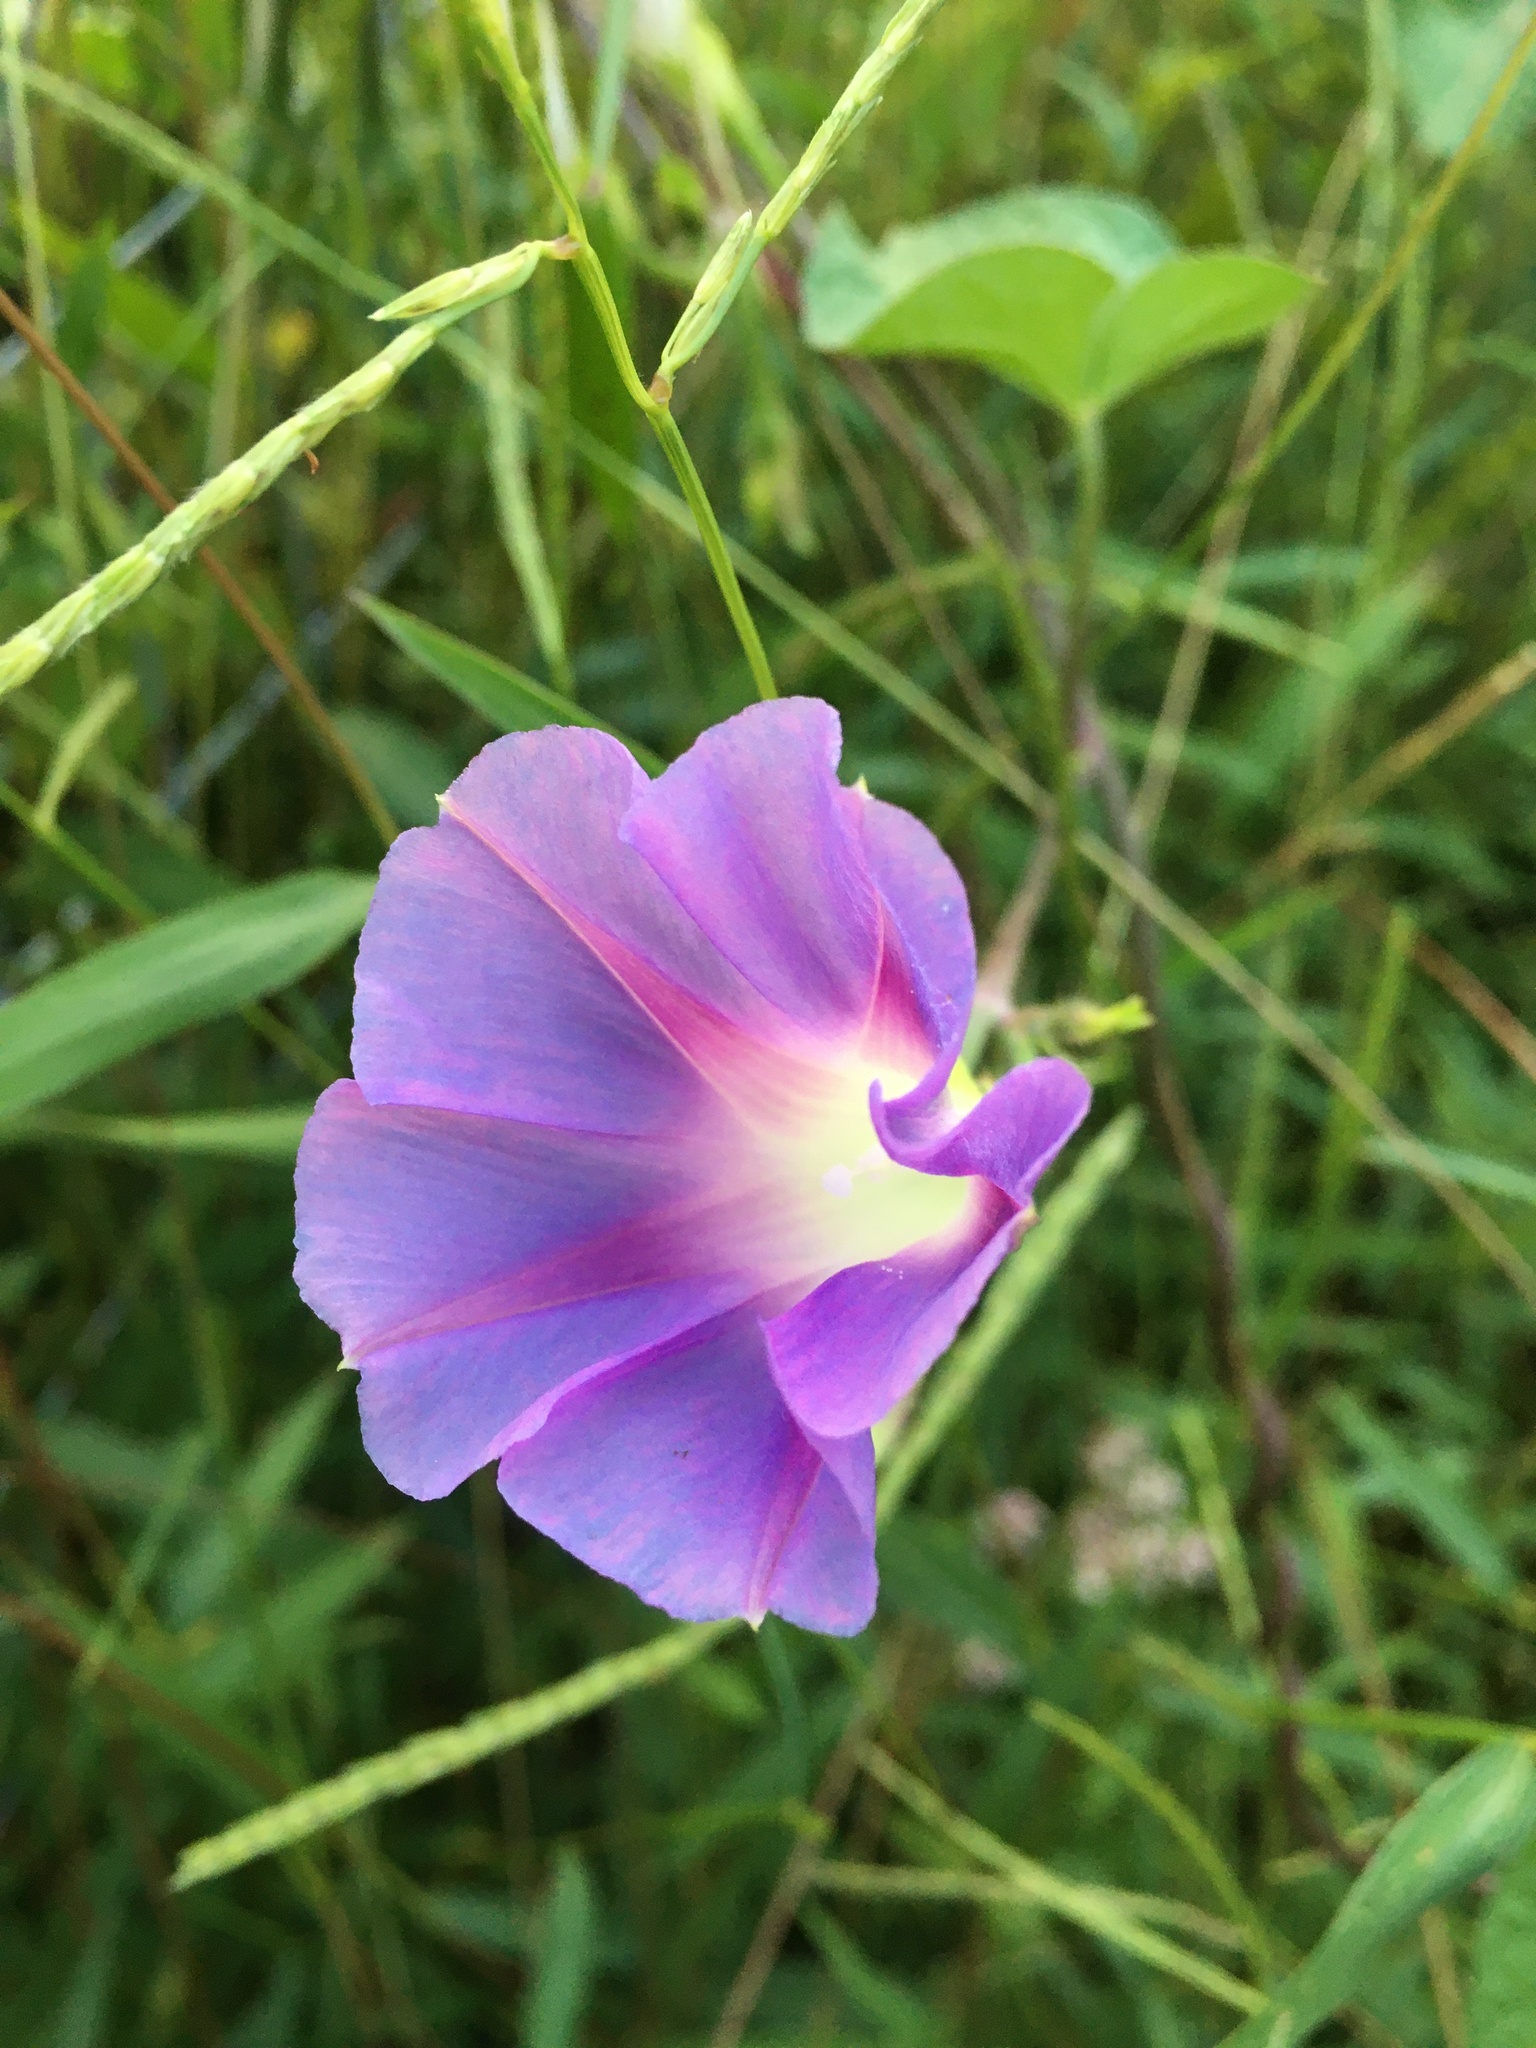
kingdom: Plantae
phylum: Tracheophyta
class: Magnoliopsida
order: Solanales
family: Convolvulaceae
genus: Ipomoea
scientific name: Ipomoea purpurea
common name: Common morning-glory
